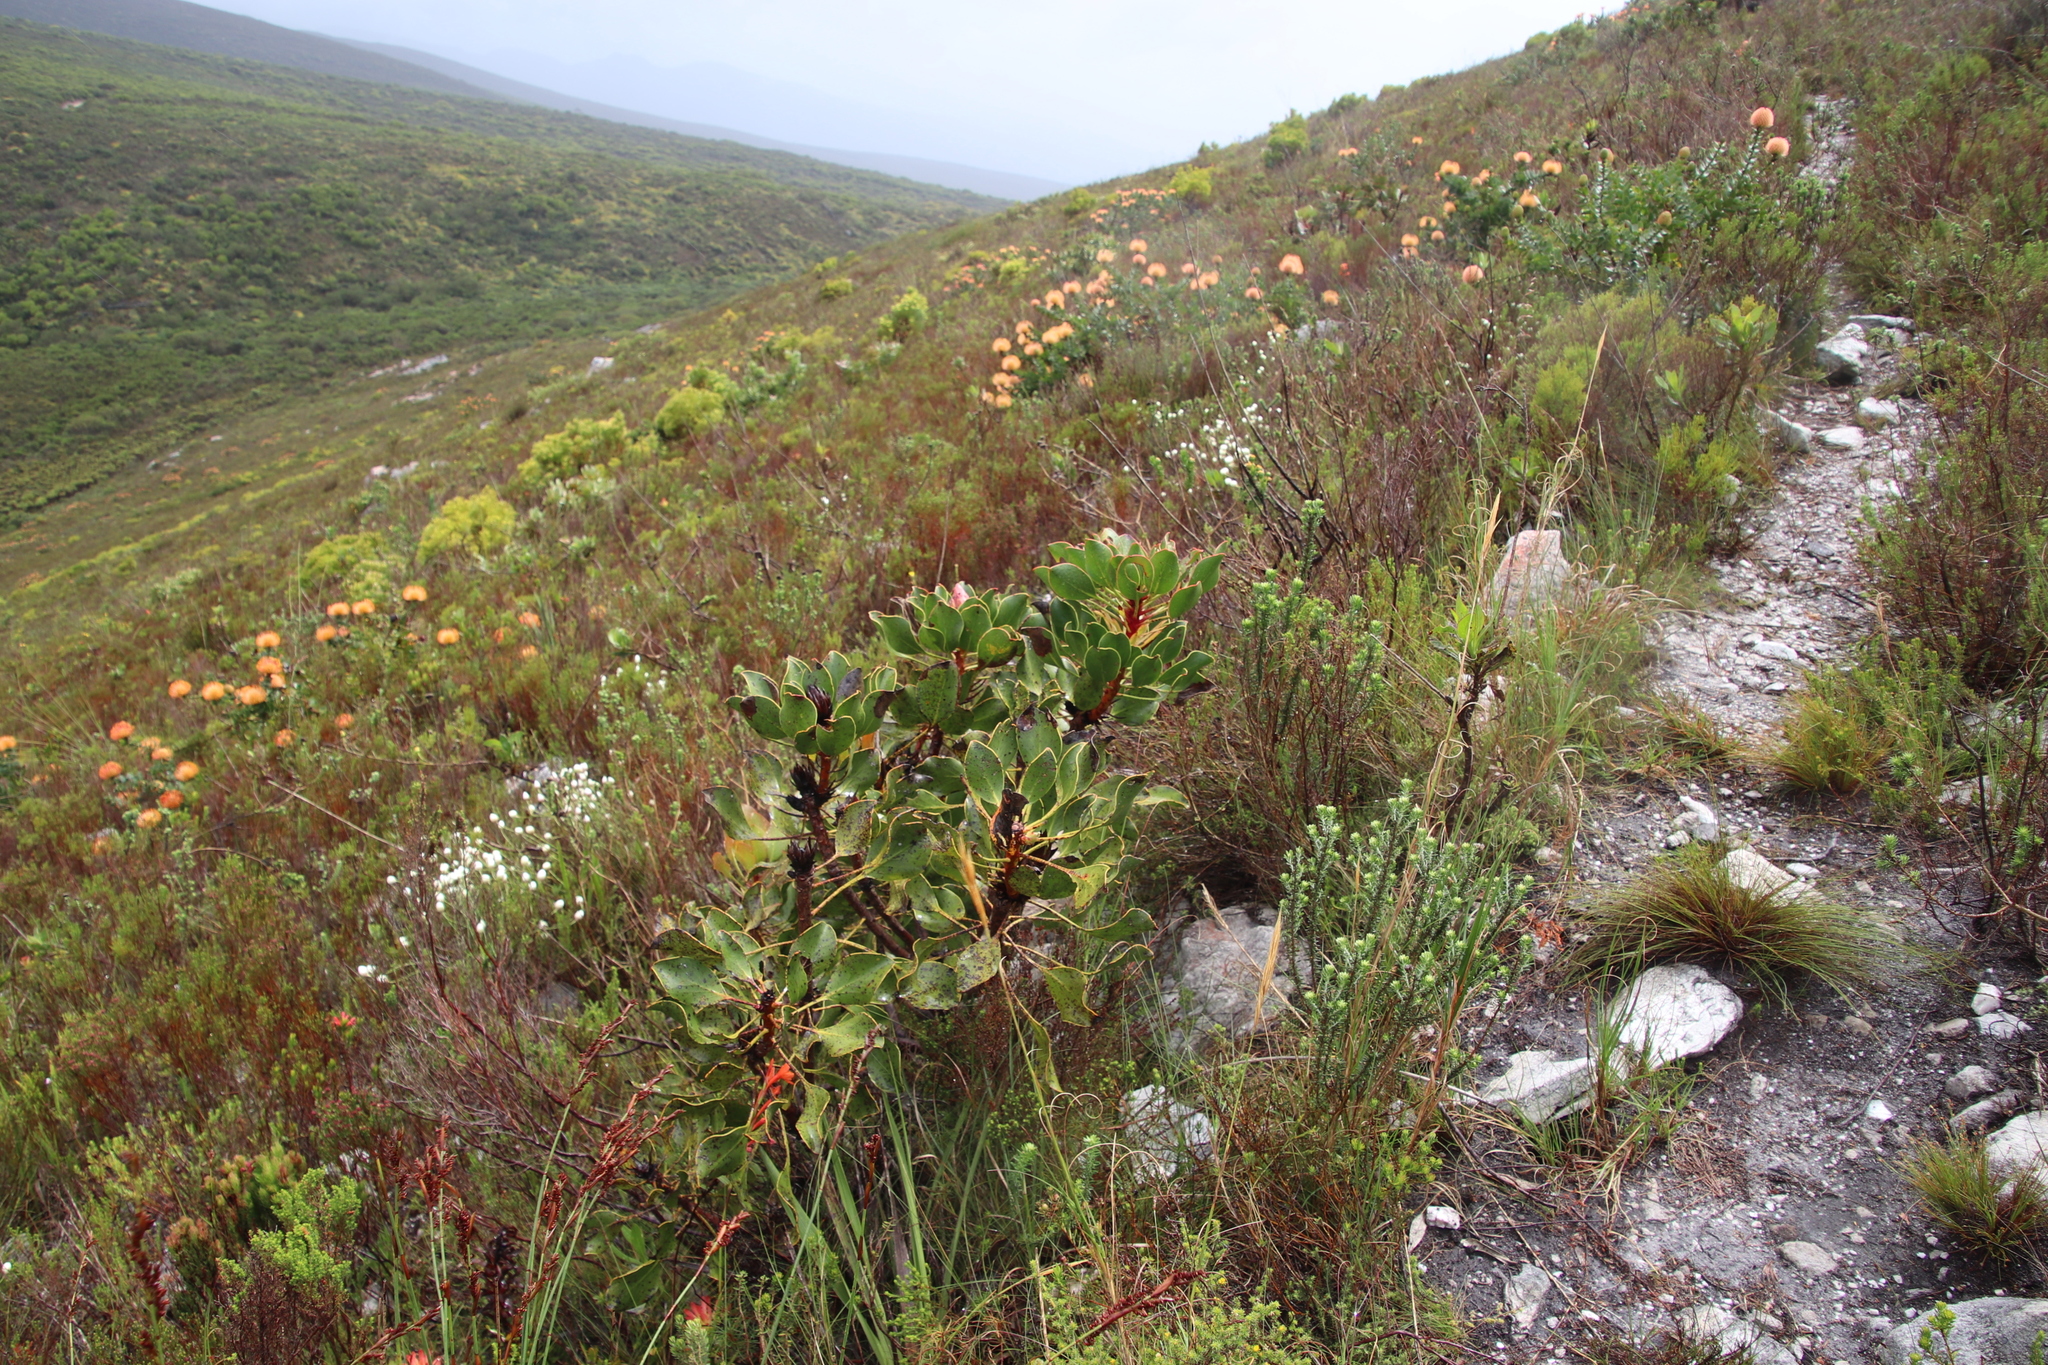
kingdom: Plantae
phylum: Tracheophyta
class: Magnoliopsida
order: Proteales
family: Proteaceae
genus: Protea
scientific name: Protea cynaroides
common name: King protea
